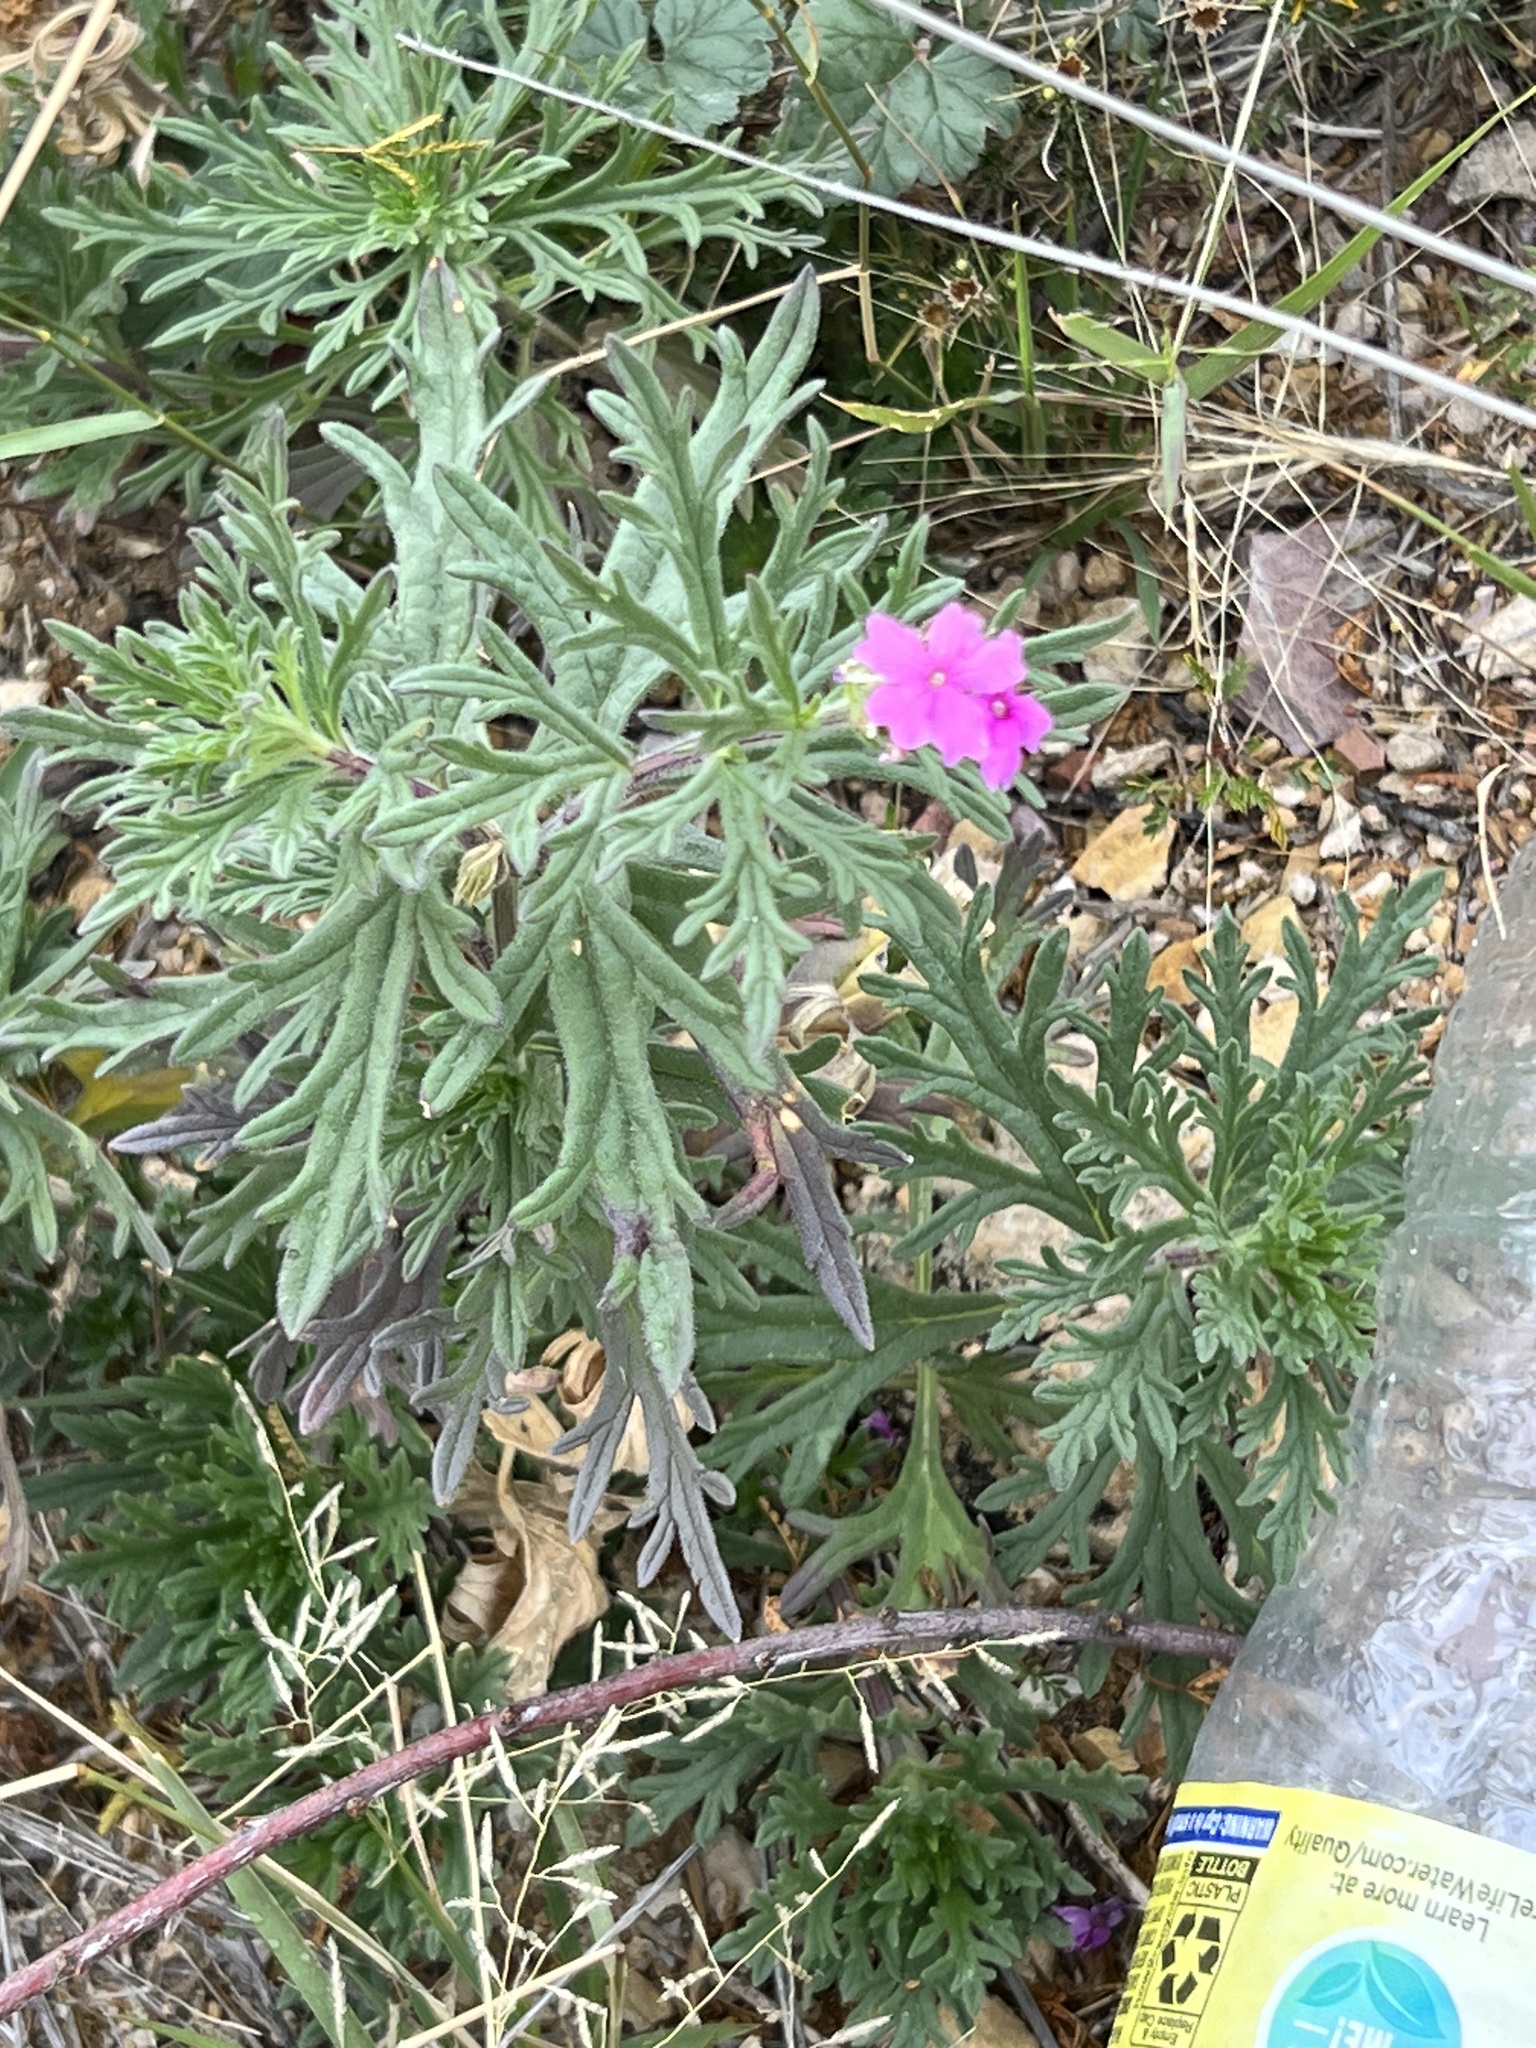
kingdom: Plantae
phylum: Tracheophyta
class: Magnoliopsida
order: Lamiales
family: Verbenaceae
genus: Verbena
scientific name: Verbena bipinnatifida
